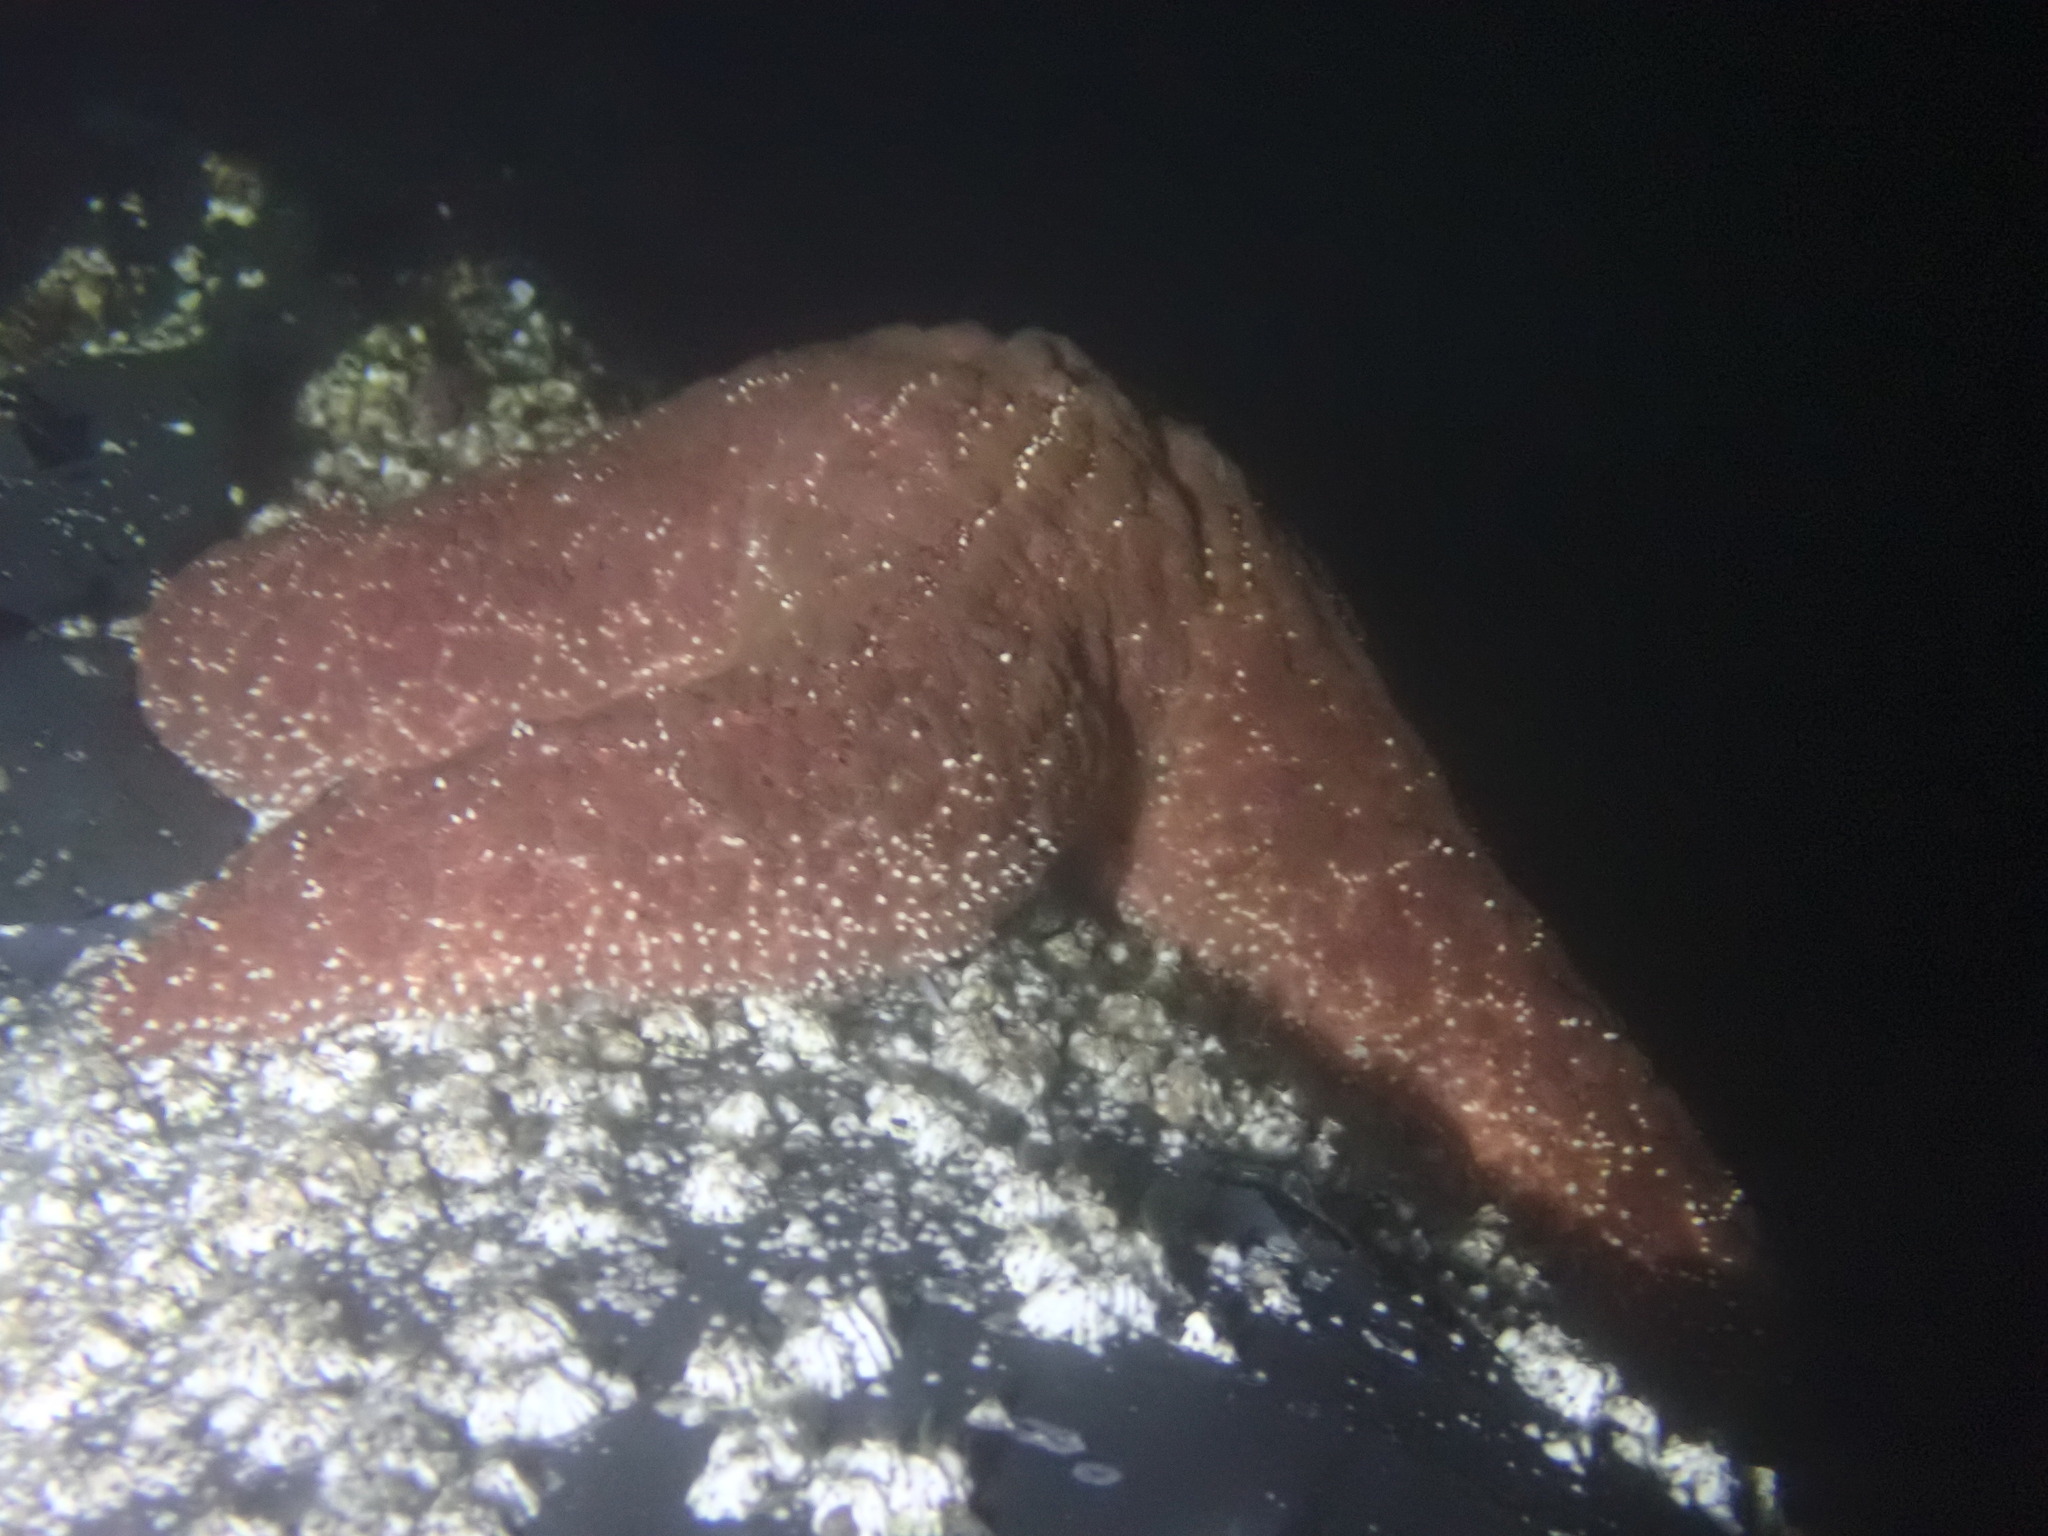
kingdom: Animalia
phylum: Echinodermata
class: Asteroidea
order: Forcipulatida
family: Asteriidae
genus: Pisaster
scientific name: Pisaster ochraceus
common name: Ochre stars
